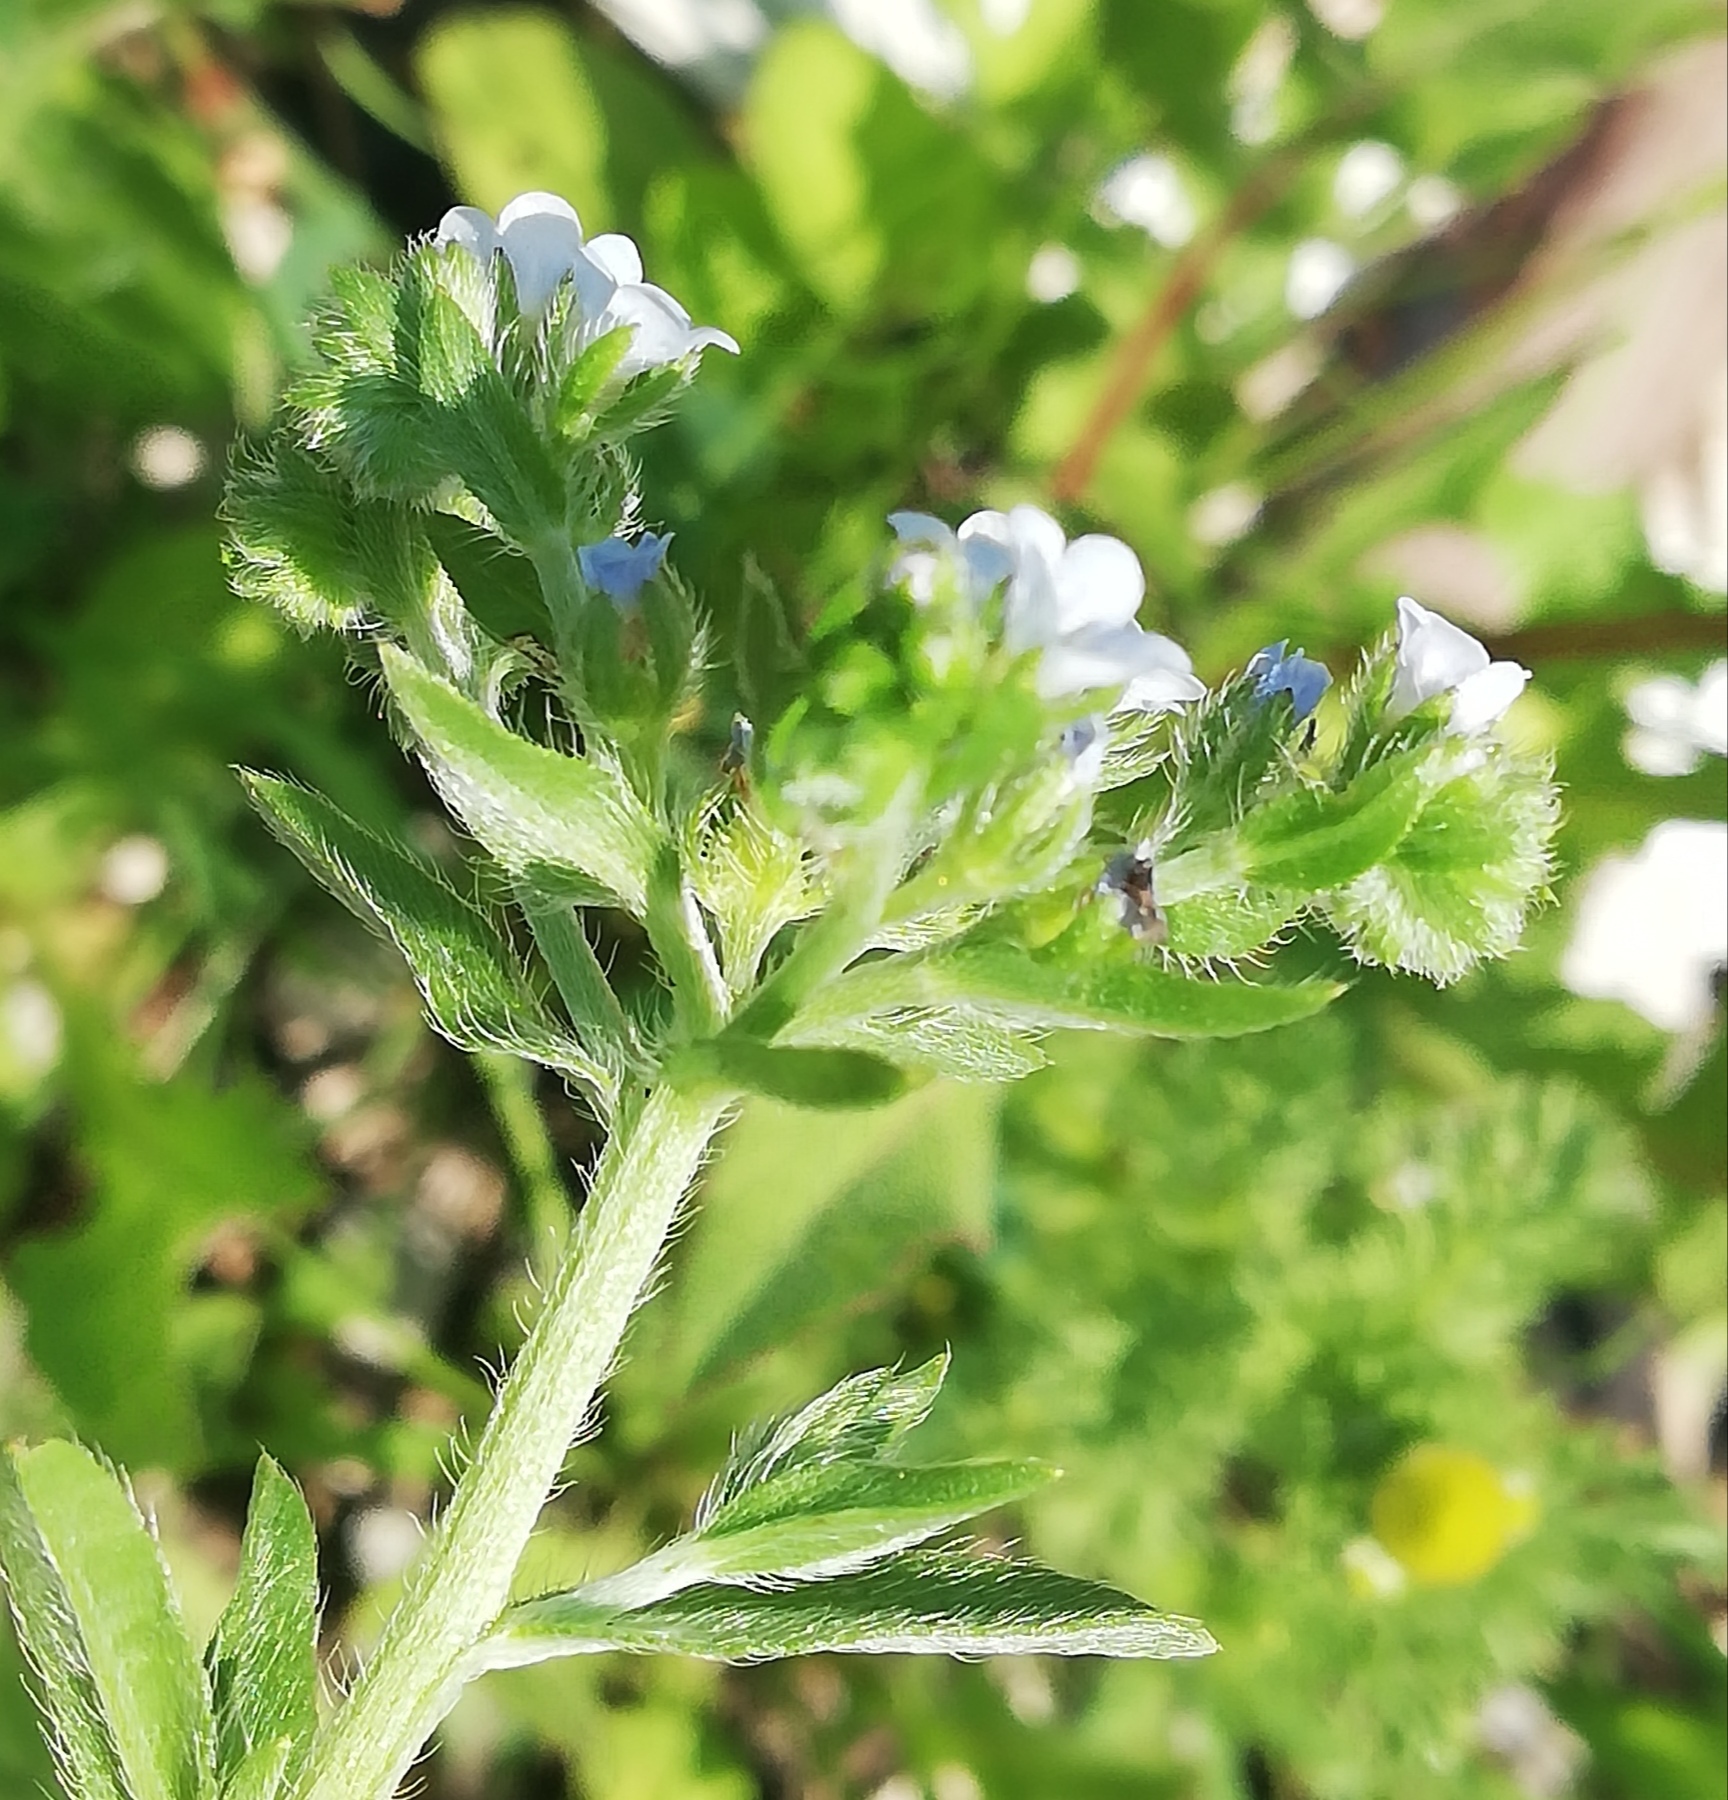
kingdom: Plantae
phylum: Tracheophyta
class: Magnoliopsida
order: Boraginales
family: Boraginaceae
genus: Lappula
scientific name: Lappula squarrosa
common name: European stickseed
